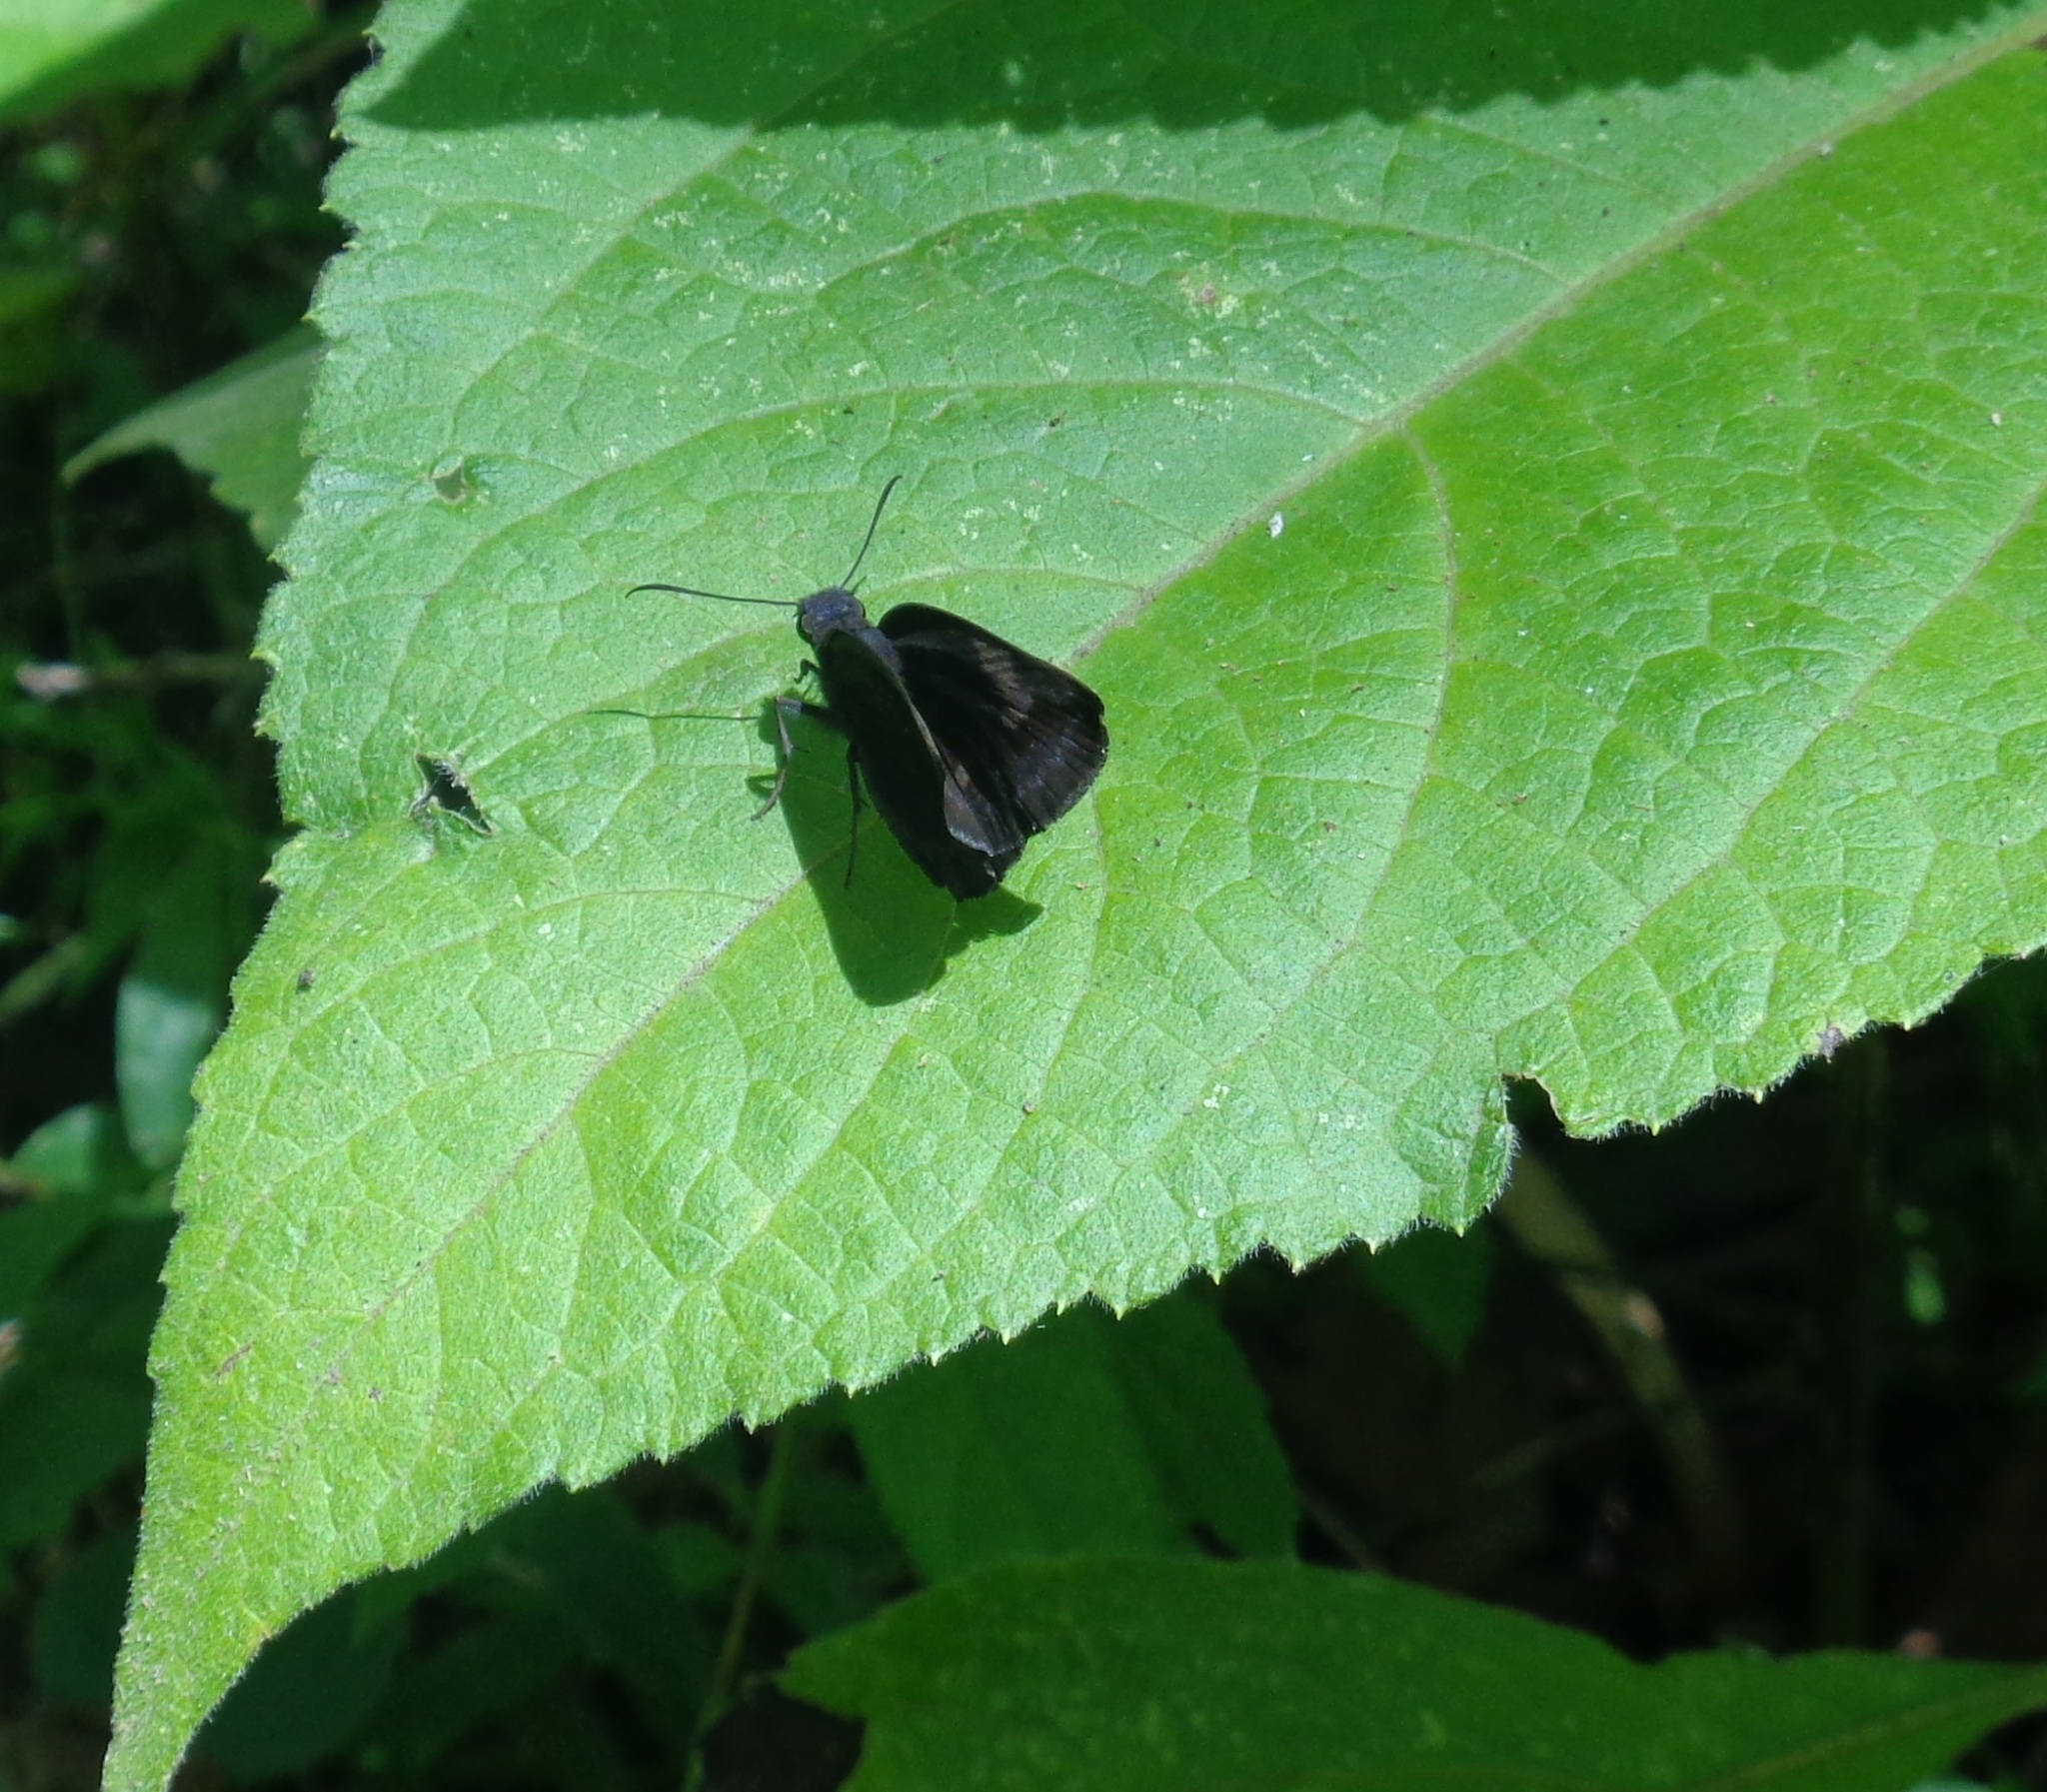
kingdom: Animalia
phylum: Arthropoda
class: Insecta
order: Lepidoptera
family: Hesperiidae
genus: Achlyodes
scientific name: Achlyodes thraso
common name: Sickle-winged skipper
